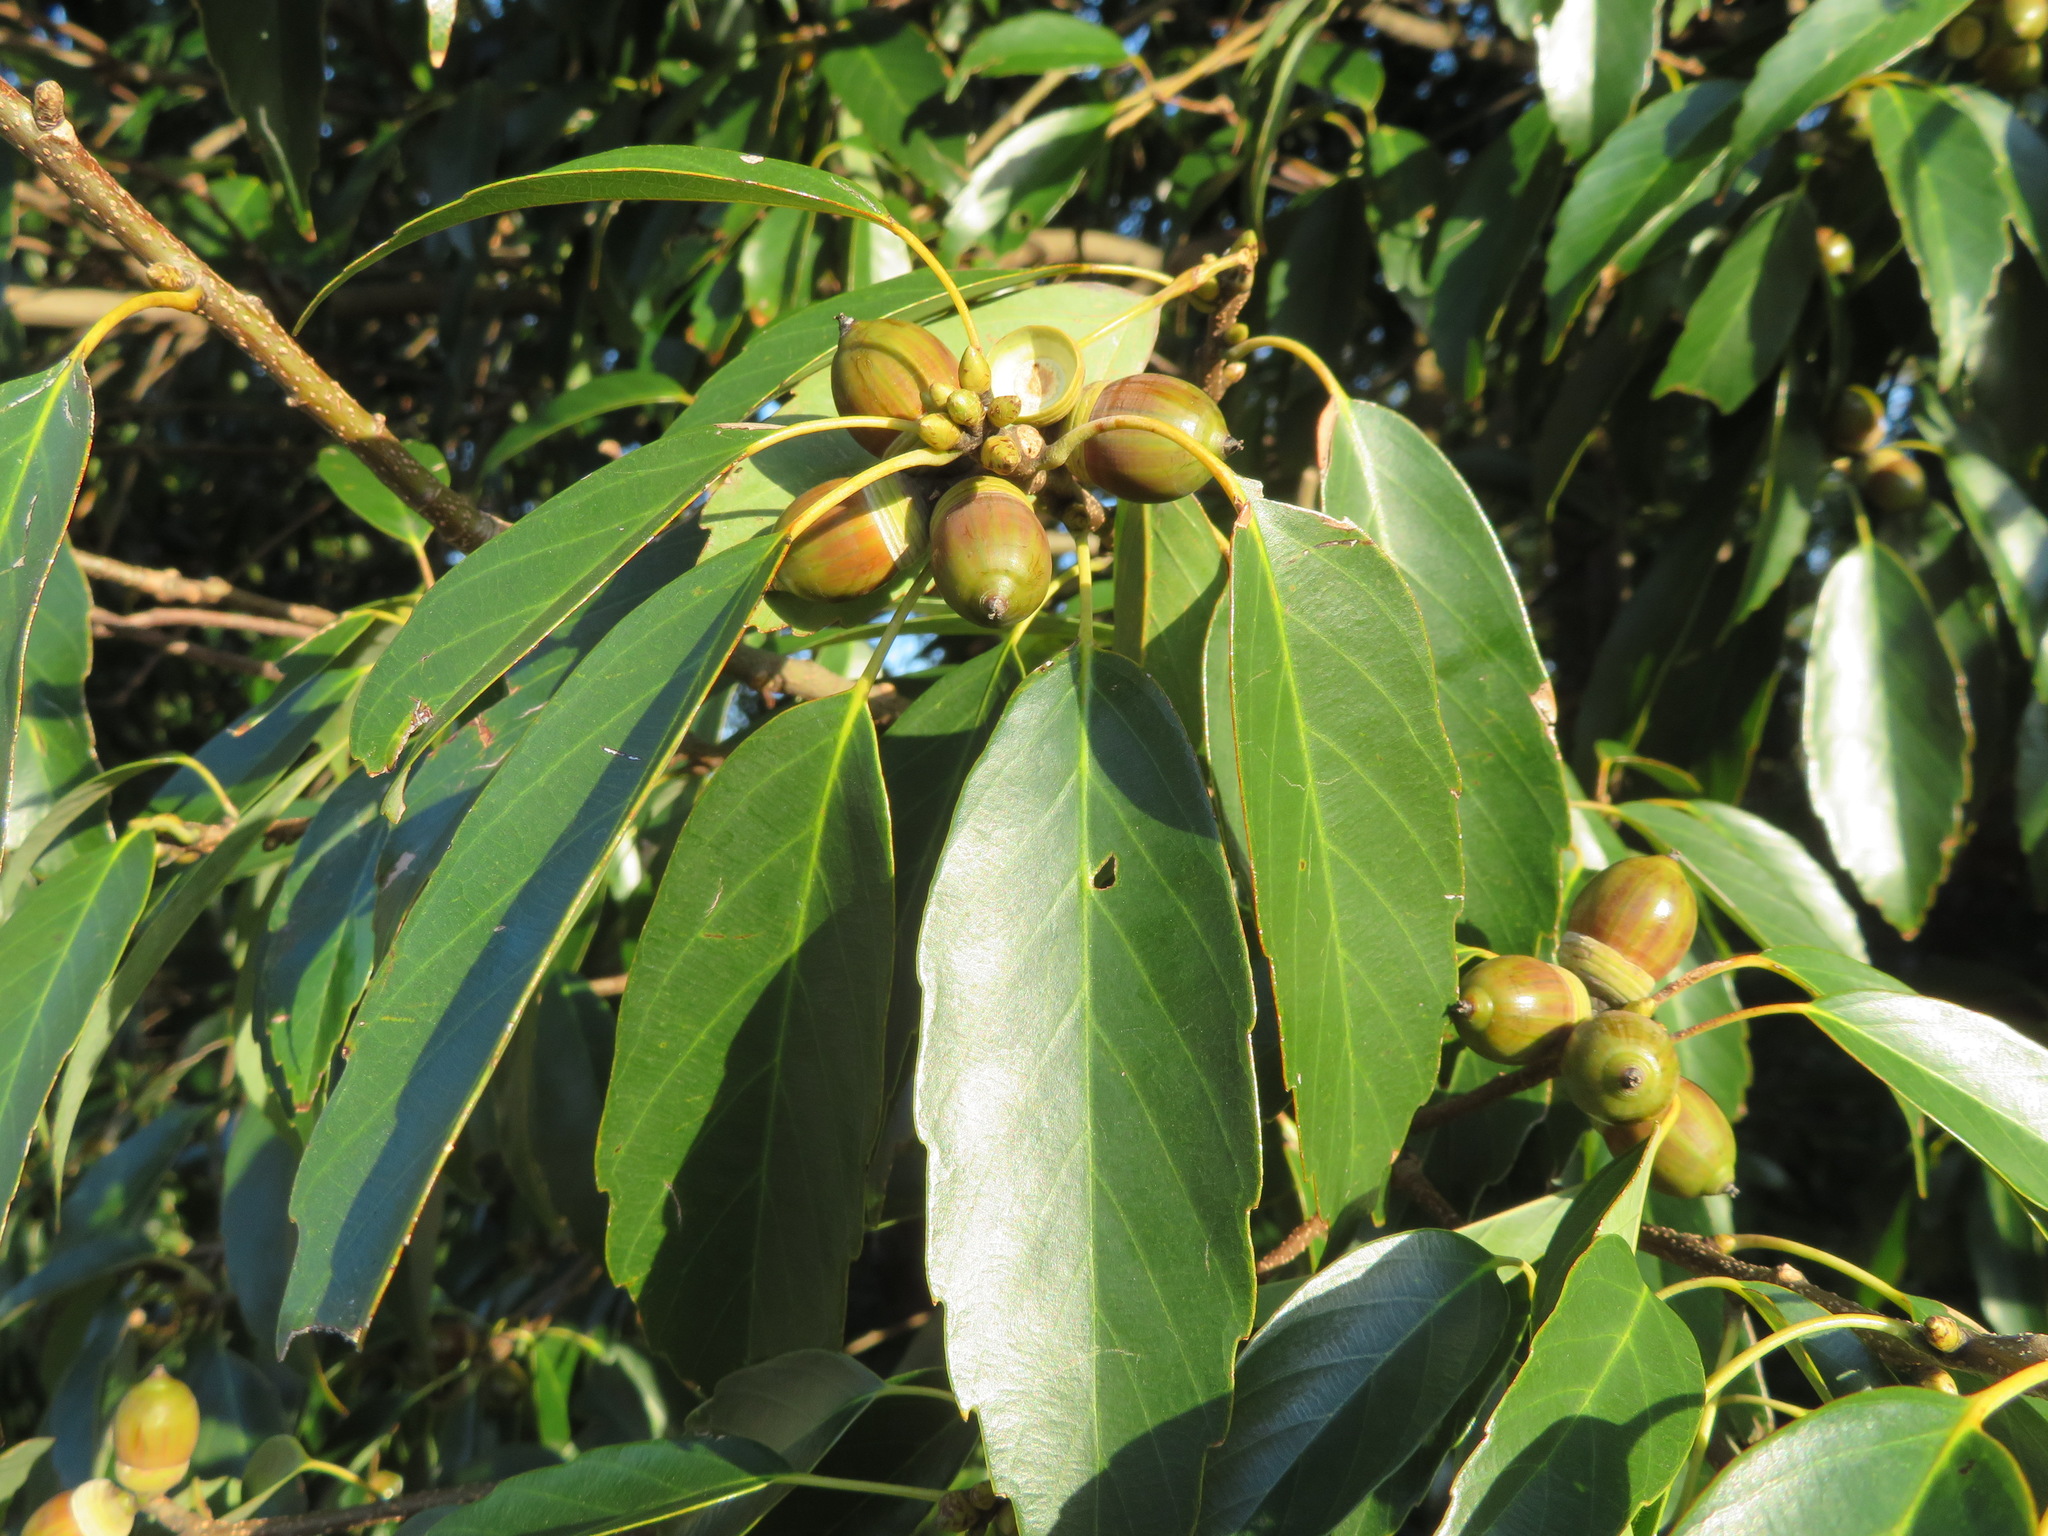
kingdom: Plantae
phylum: Tracheophyta
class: Magnoliopsida
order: Fagales
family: Fagaceae
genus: Quercus
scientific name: Quercus glauca
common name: Ring-cup oak
